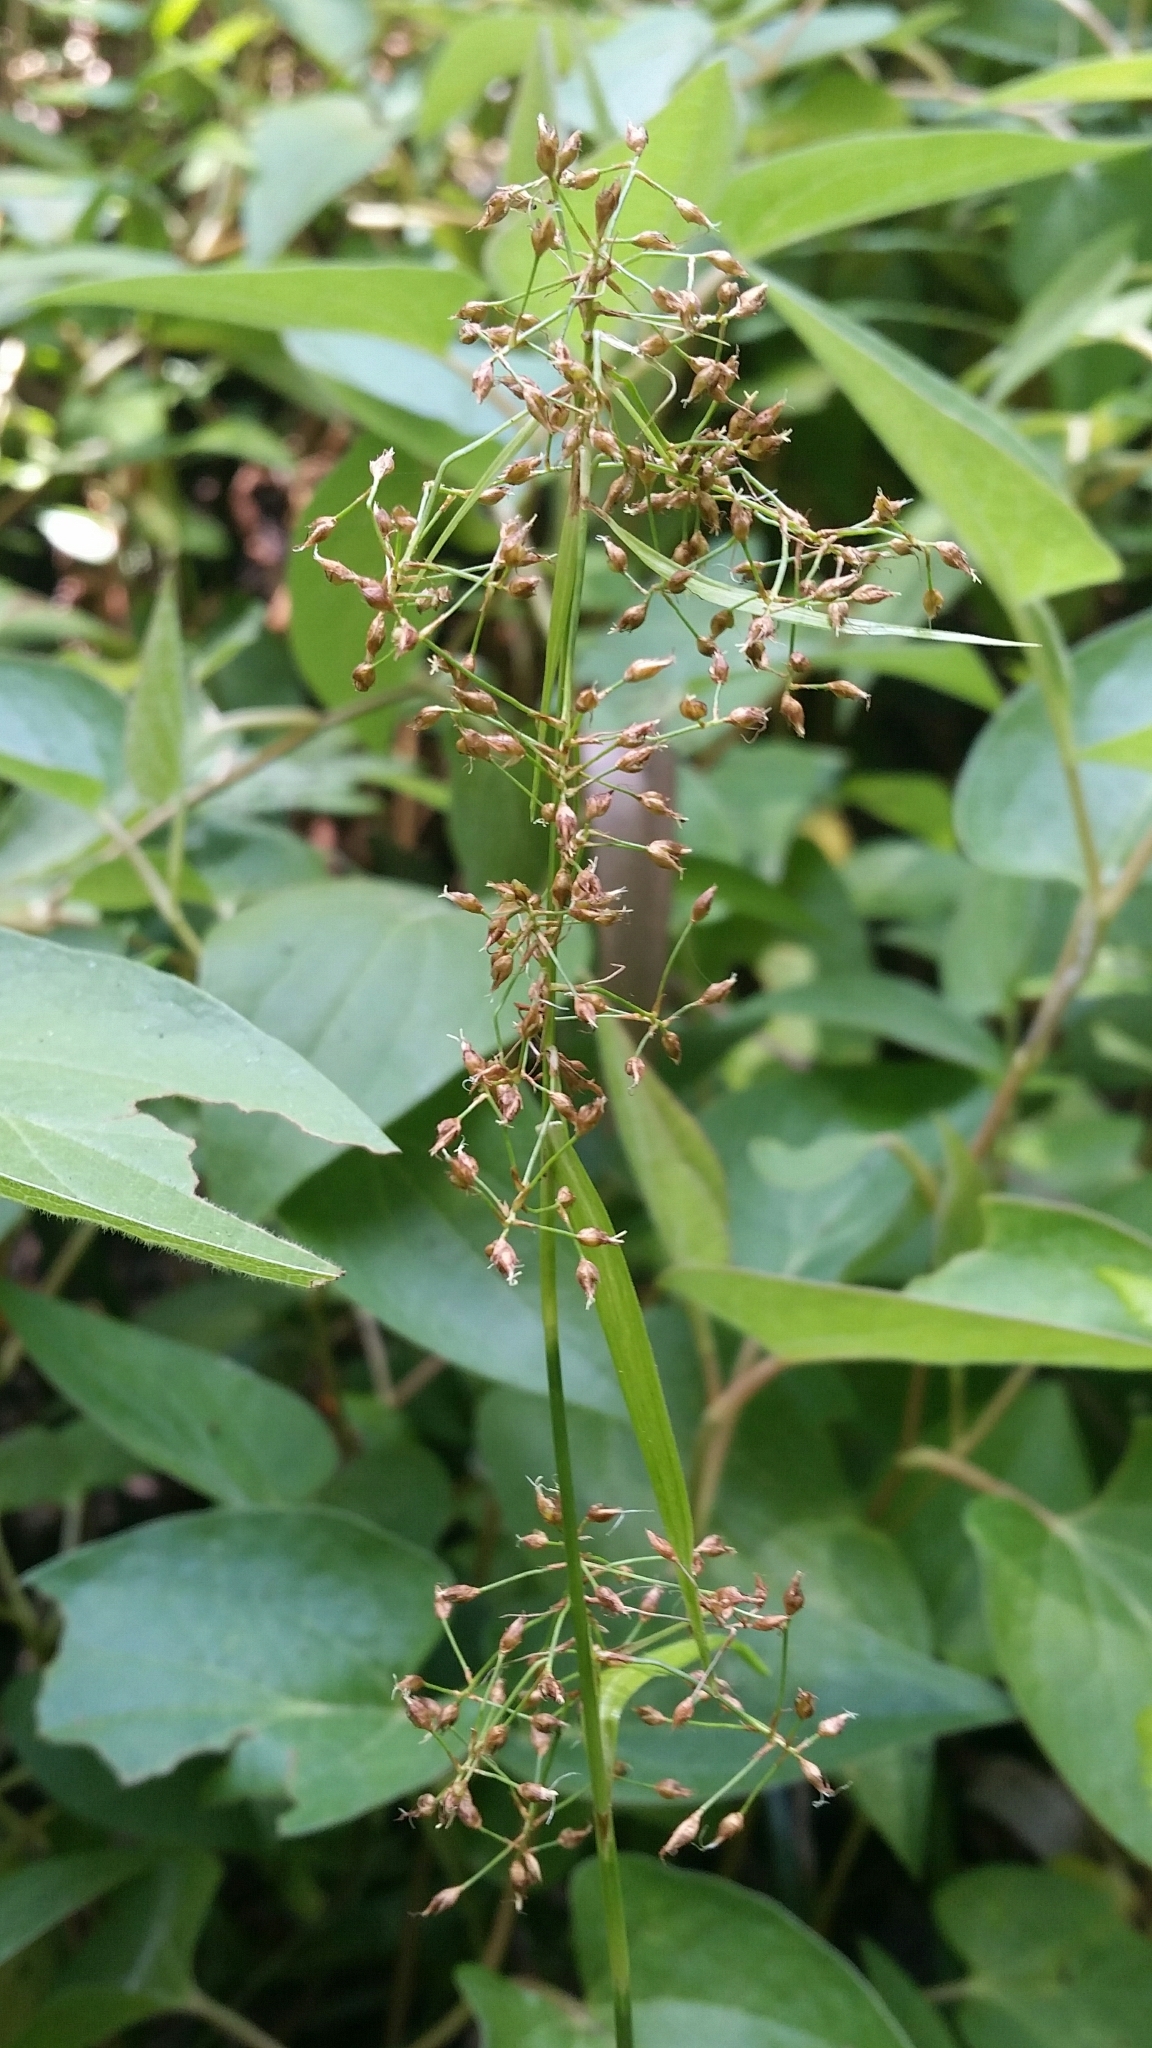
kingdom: Plantae
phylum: Tracheophyta
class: Liliopsida
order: Poales
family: Cyperaceae
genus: Rhynchospora
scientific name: Rhynchospora miliacea
